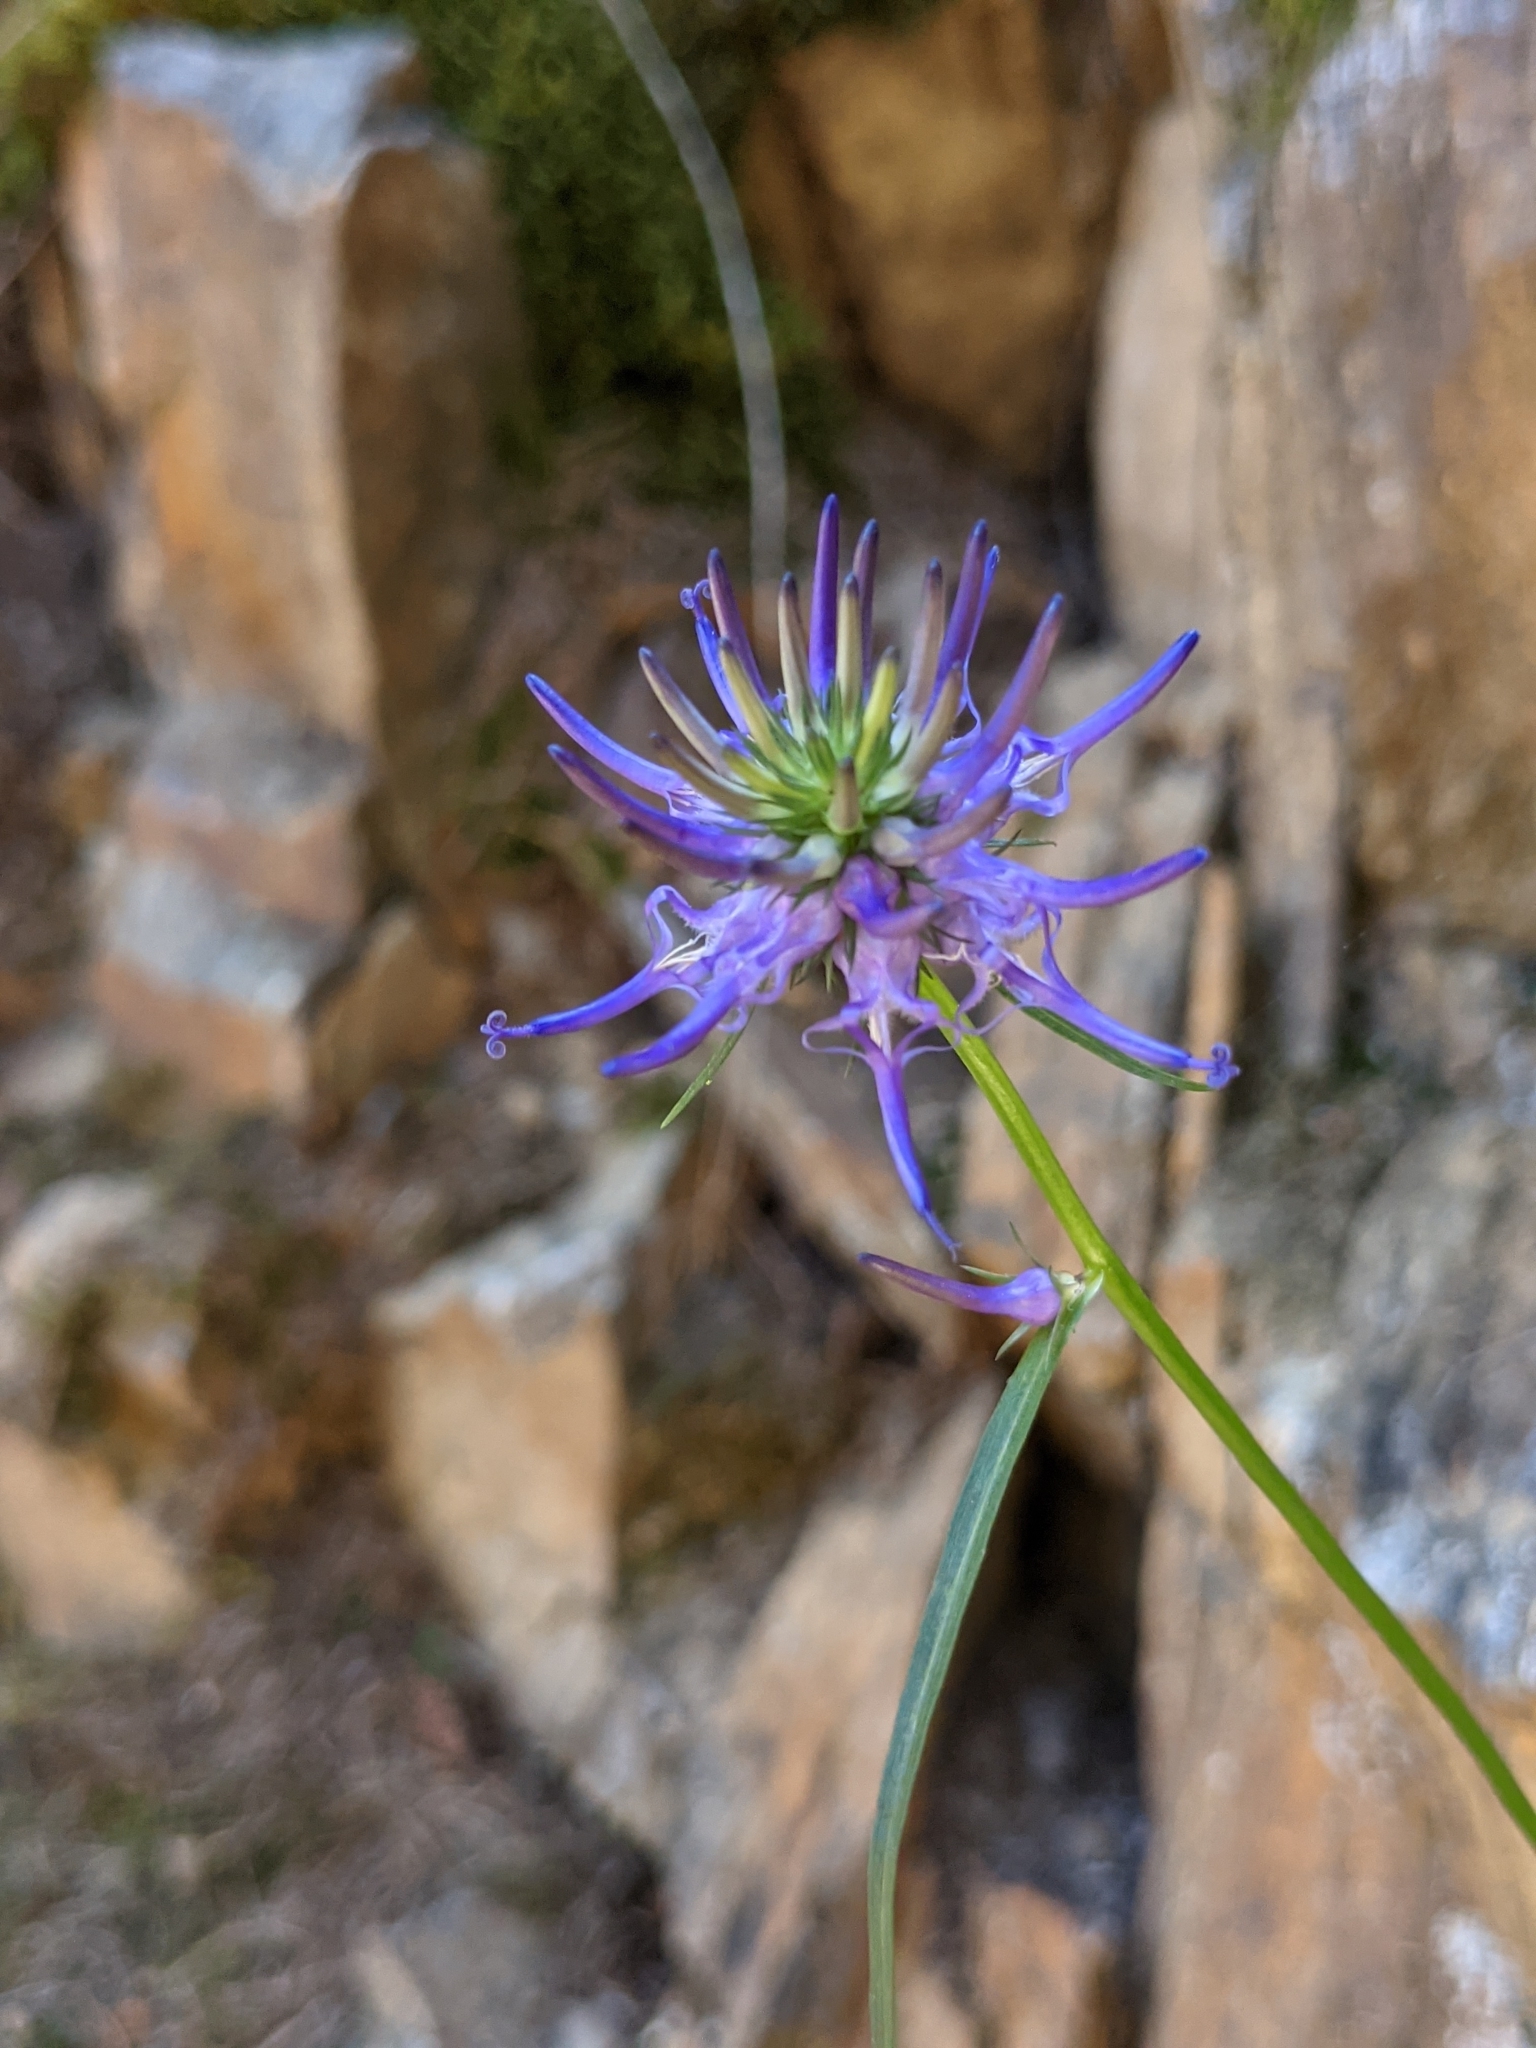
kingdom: Plantae
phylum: Tracheophyta
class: Magnoliopsida
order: Asterales
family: Campanulaceae
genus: Phyteuma
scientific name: Phyteuma scheuchzeri
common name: Oxford rampion
